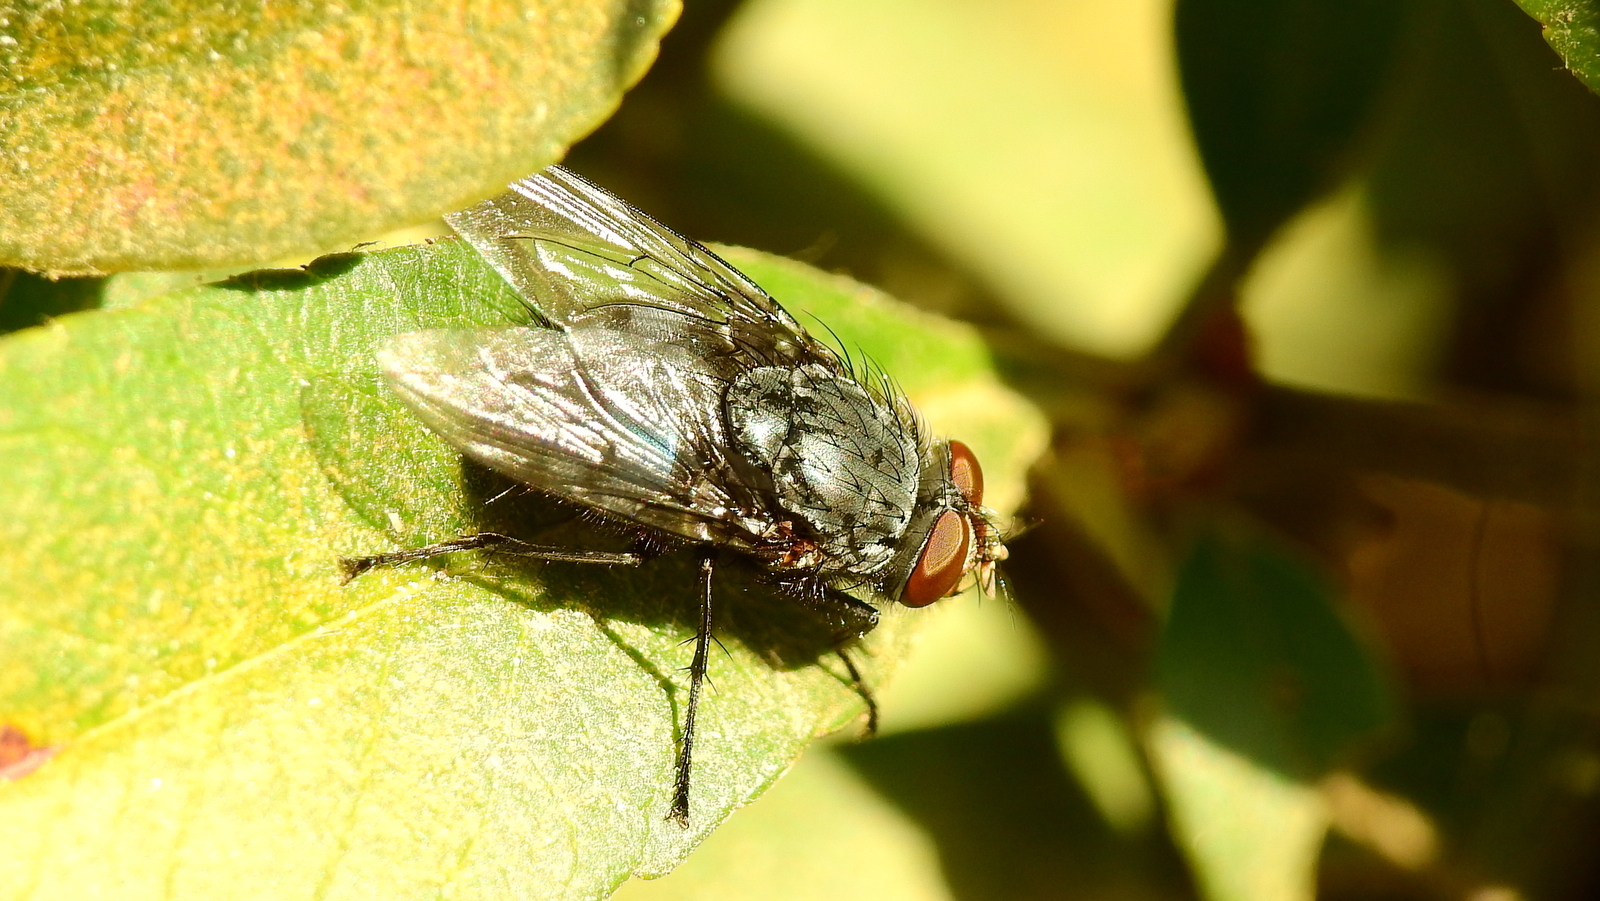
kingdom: Animalia
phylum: Arthropoda
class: Insecta
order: Diptera
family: Calliphoridae
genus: Calliphora
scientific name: Calliphora vicina
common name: Common blow flie
